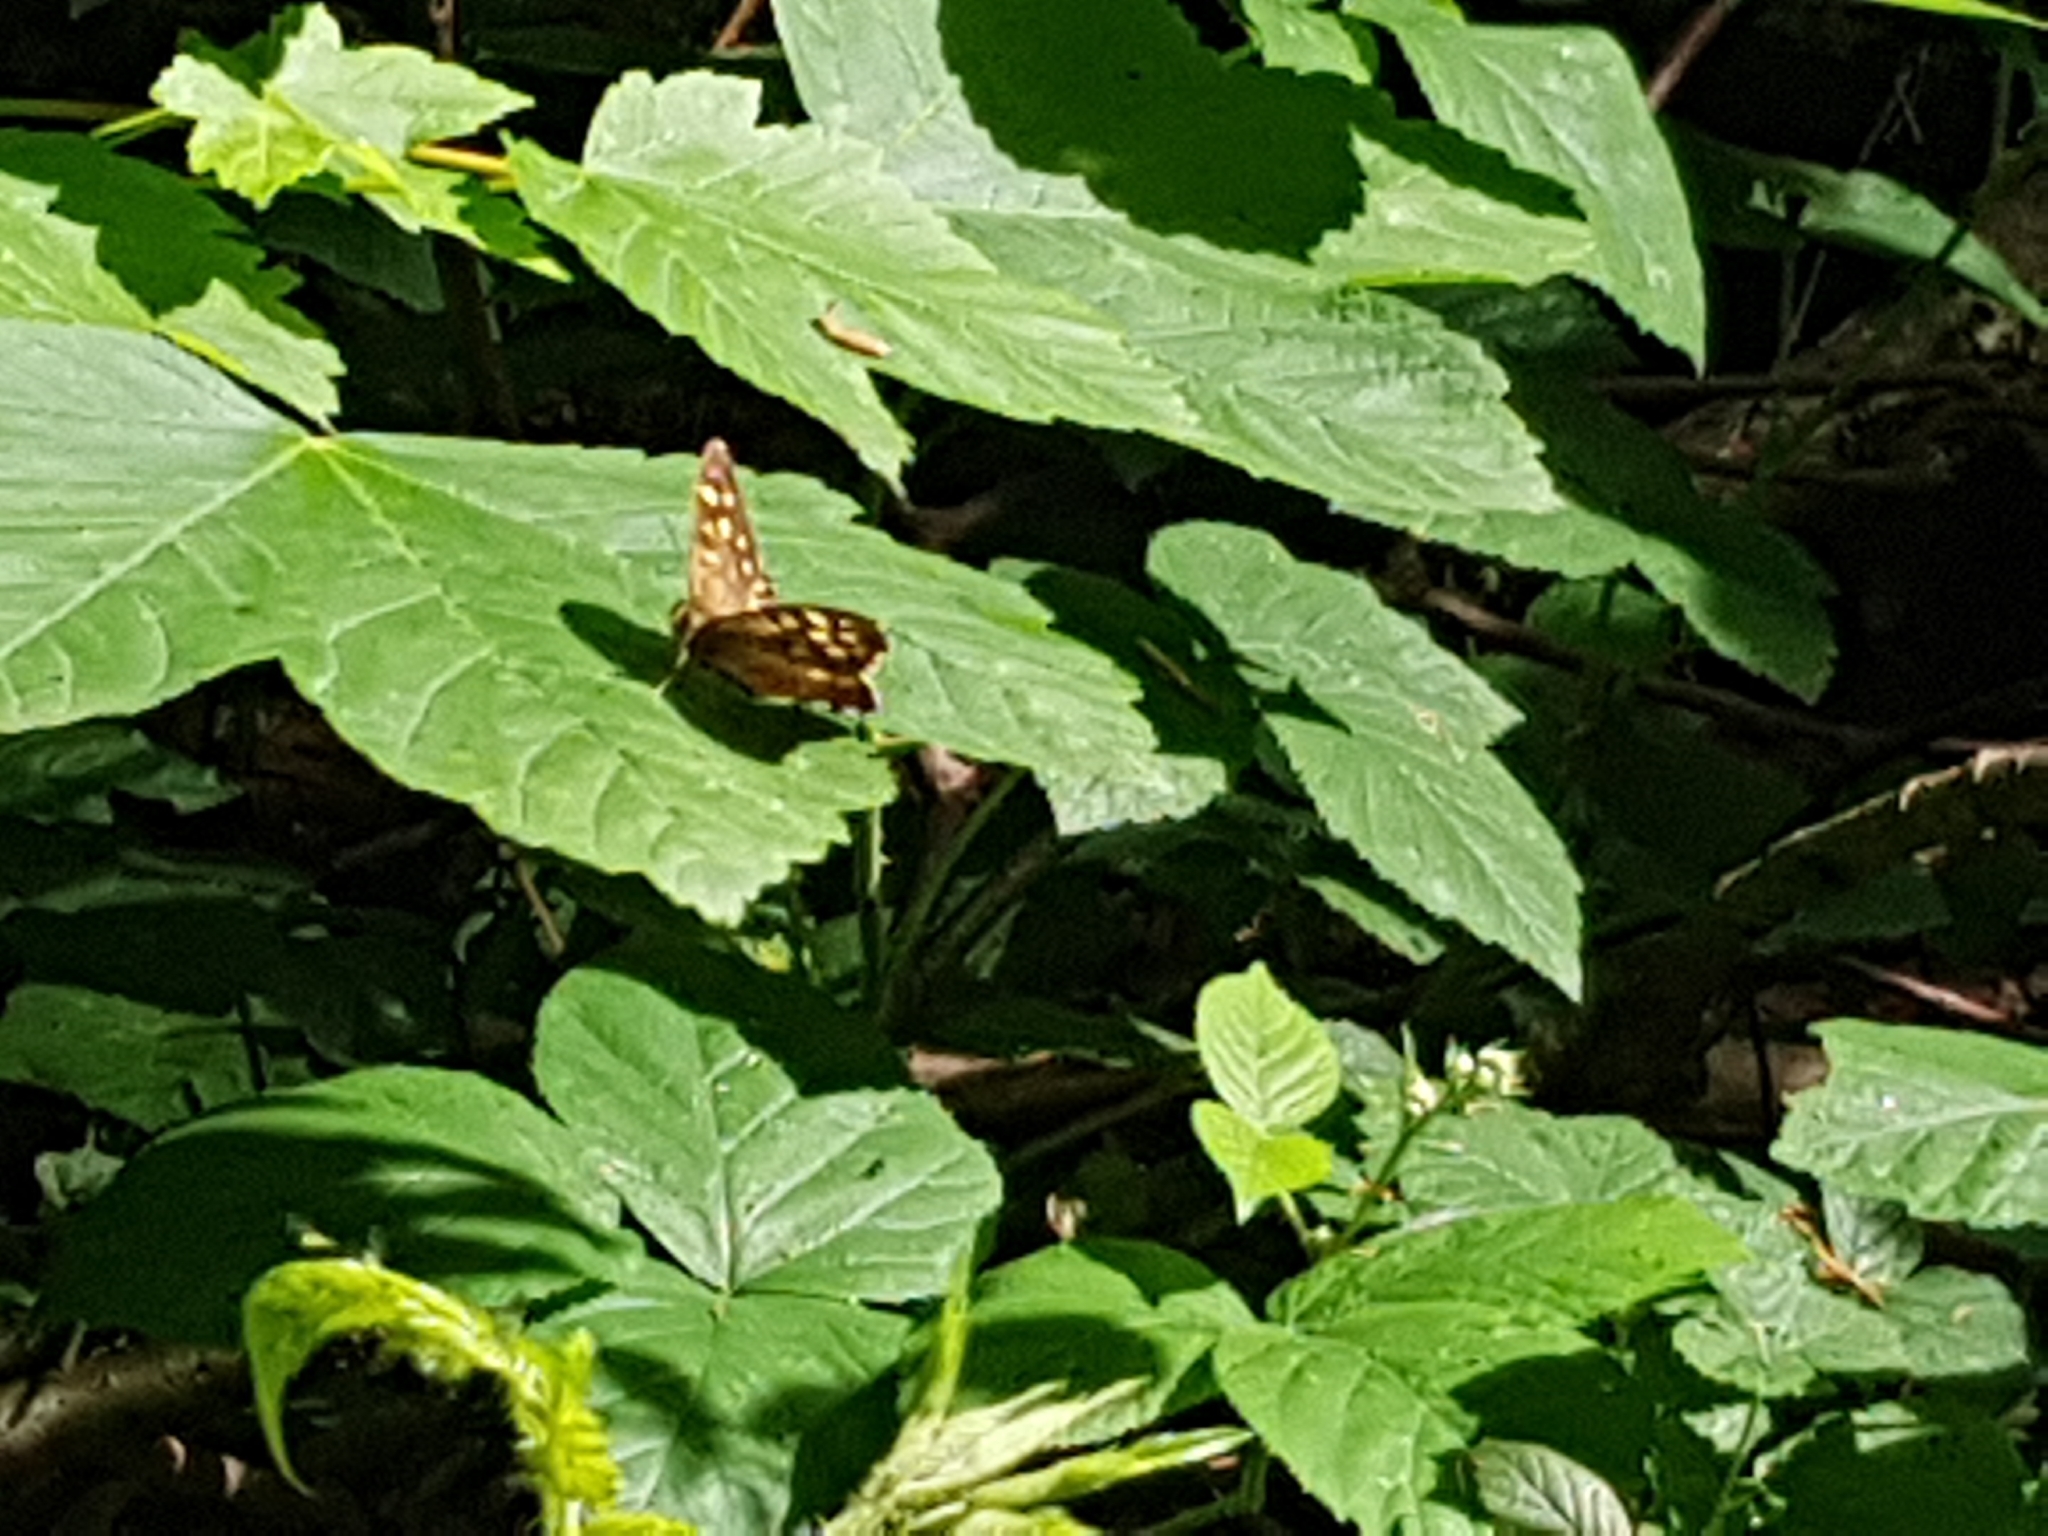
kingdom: Animalia
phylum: Arthropoda
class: Insecta
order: Lepidoptera
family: Nymphalidae
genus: Pararge
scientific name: Pararge aegeria
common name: Speckled wood
